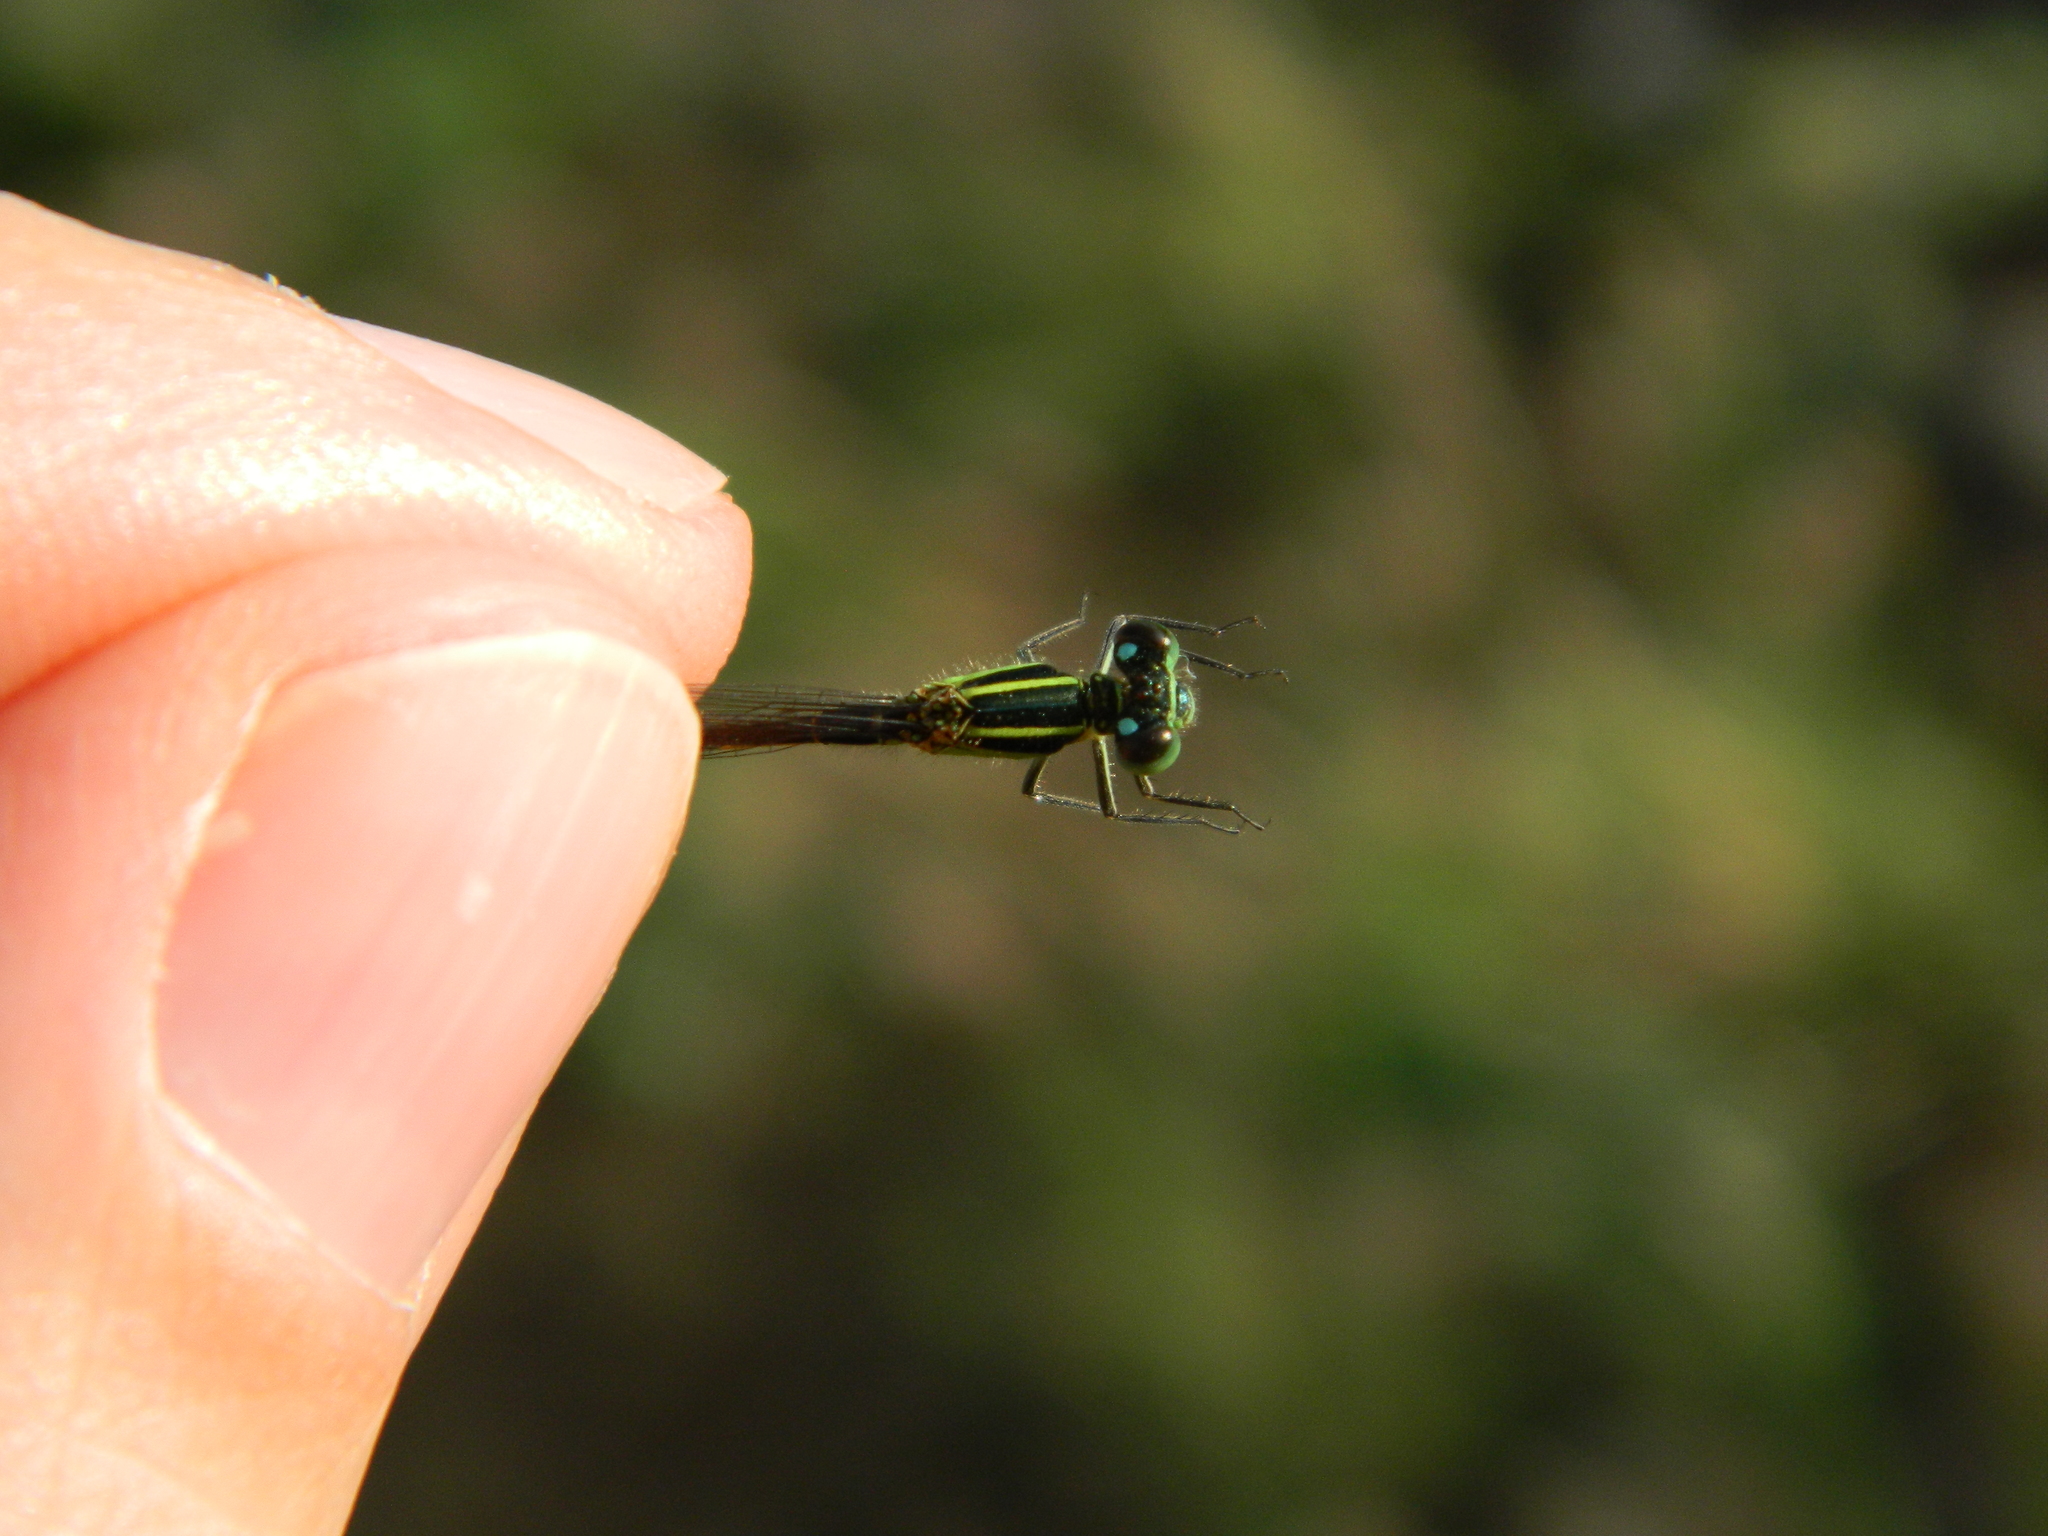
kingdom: Animalia
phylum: Arthropoda
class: Insecta
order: Odonata
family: Coenagrionidae
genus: Ischnura
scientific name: Ischnura ramburii
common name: Rambur's forktail
